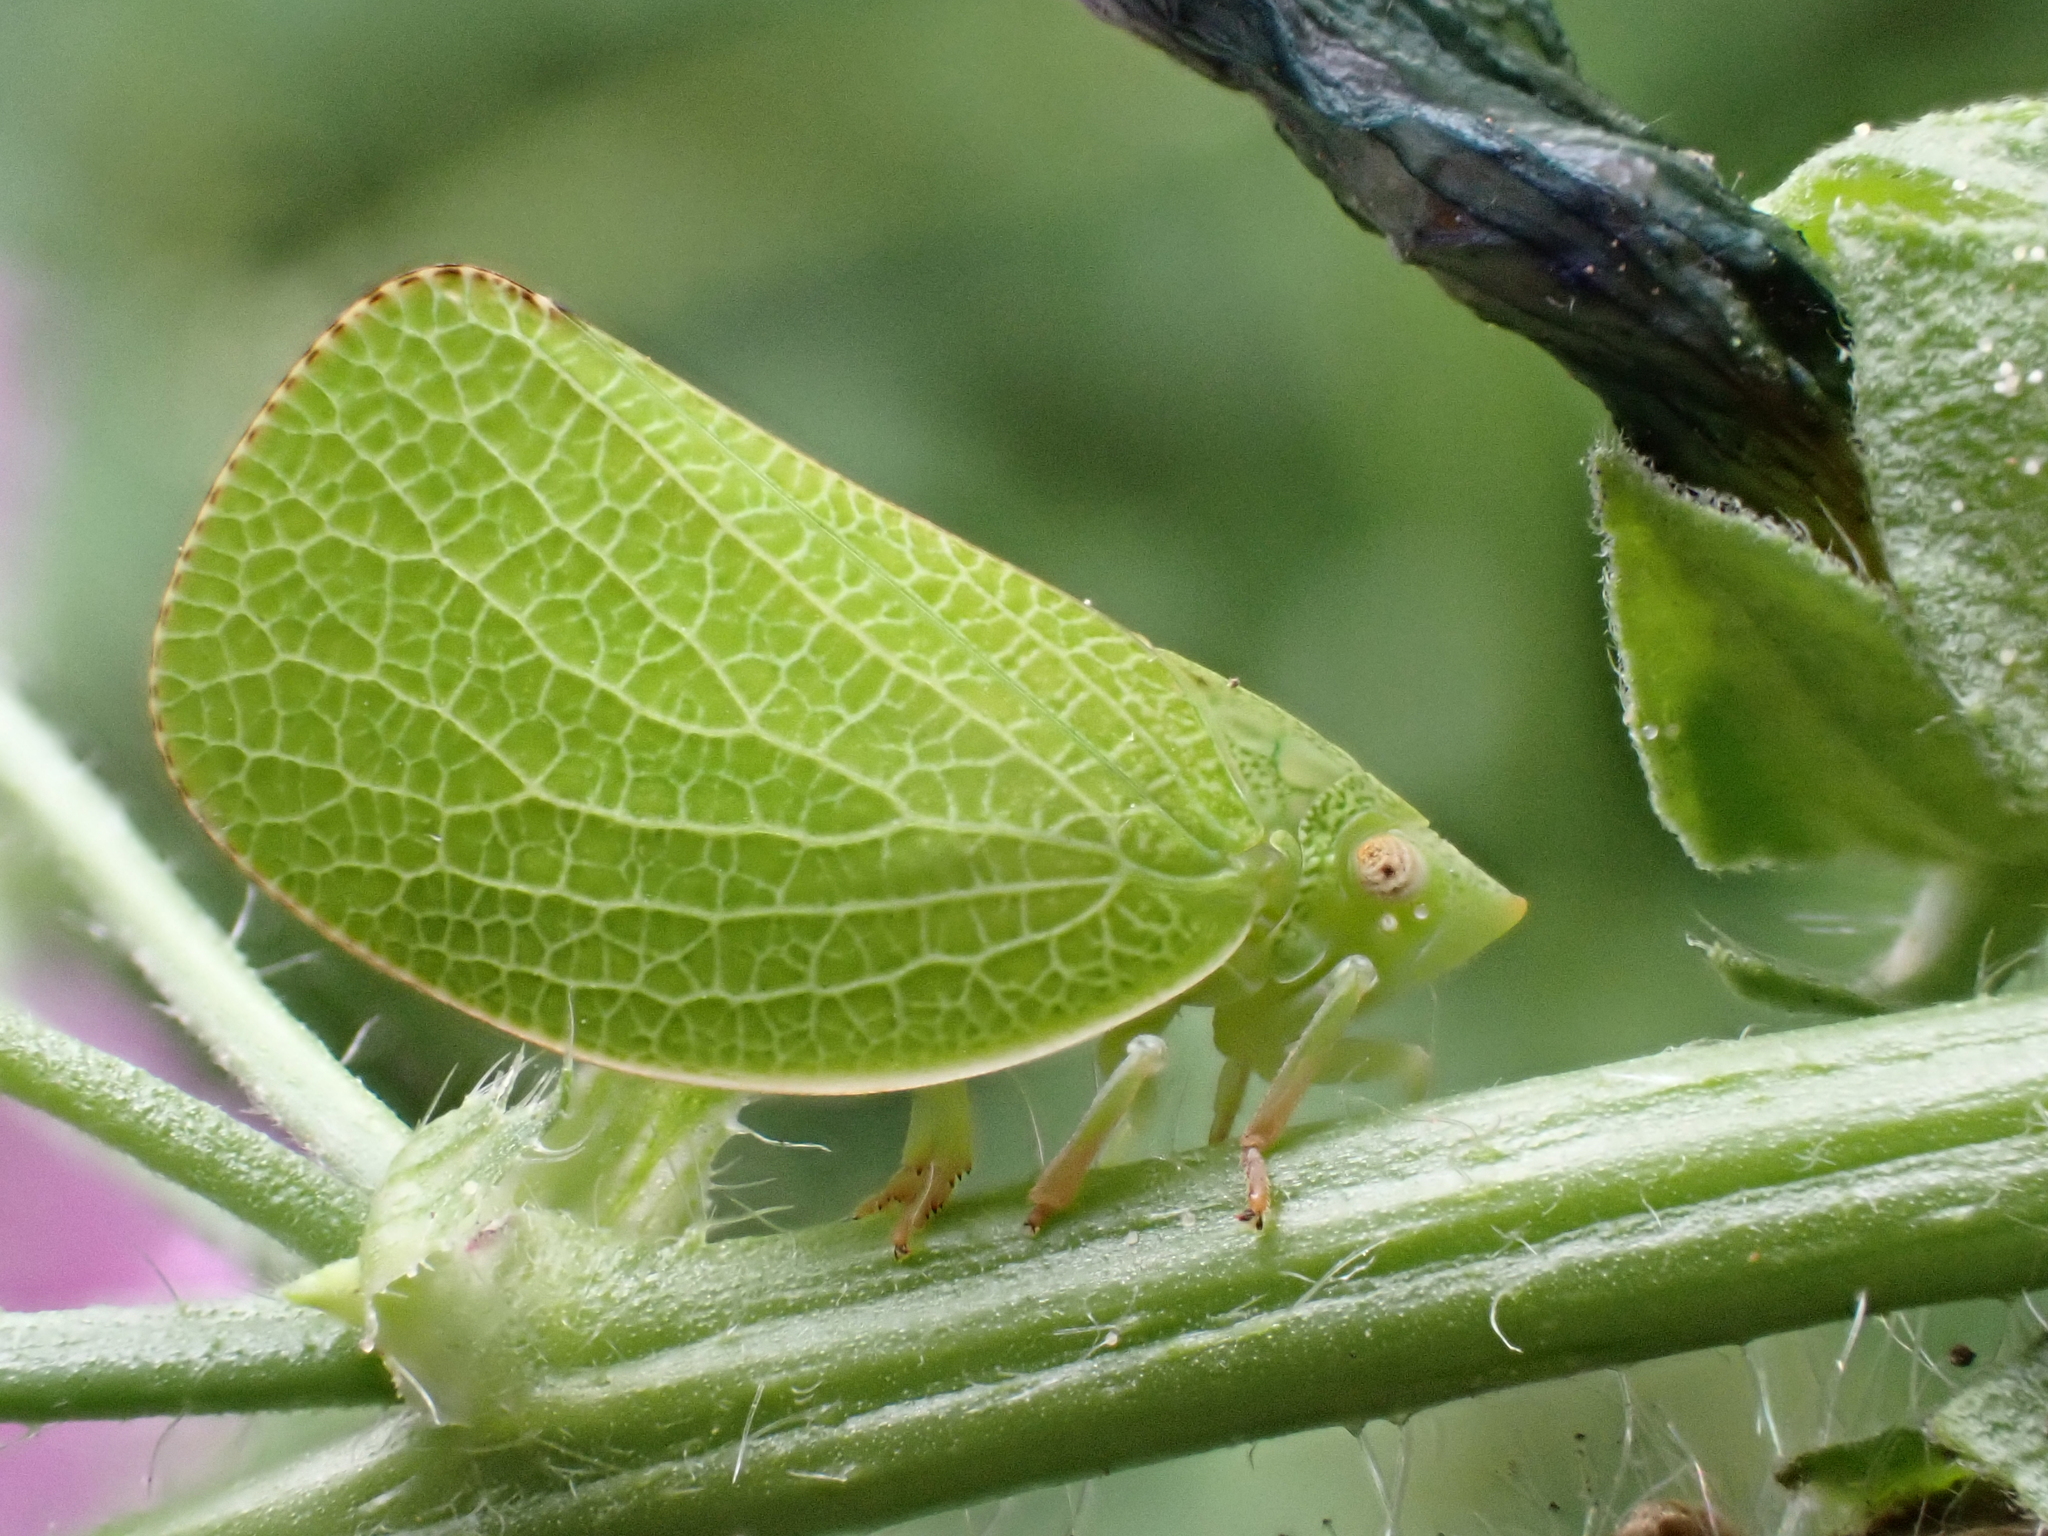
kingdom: Animalia
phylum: Arthropoda
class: Insecta
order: Hemiptera
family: Acanaloniidae
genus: Acanalonia
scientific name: Acanalonia conica
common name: Green cone-headed planthopper
